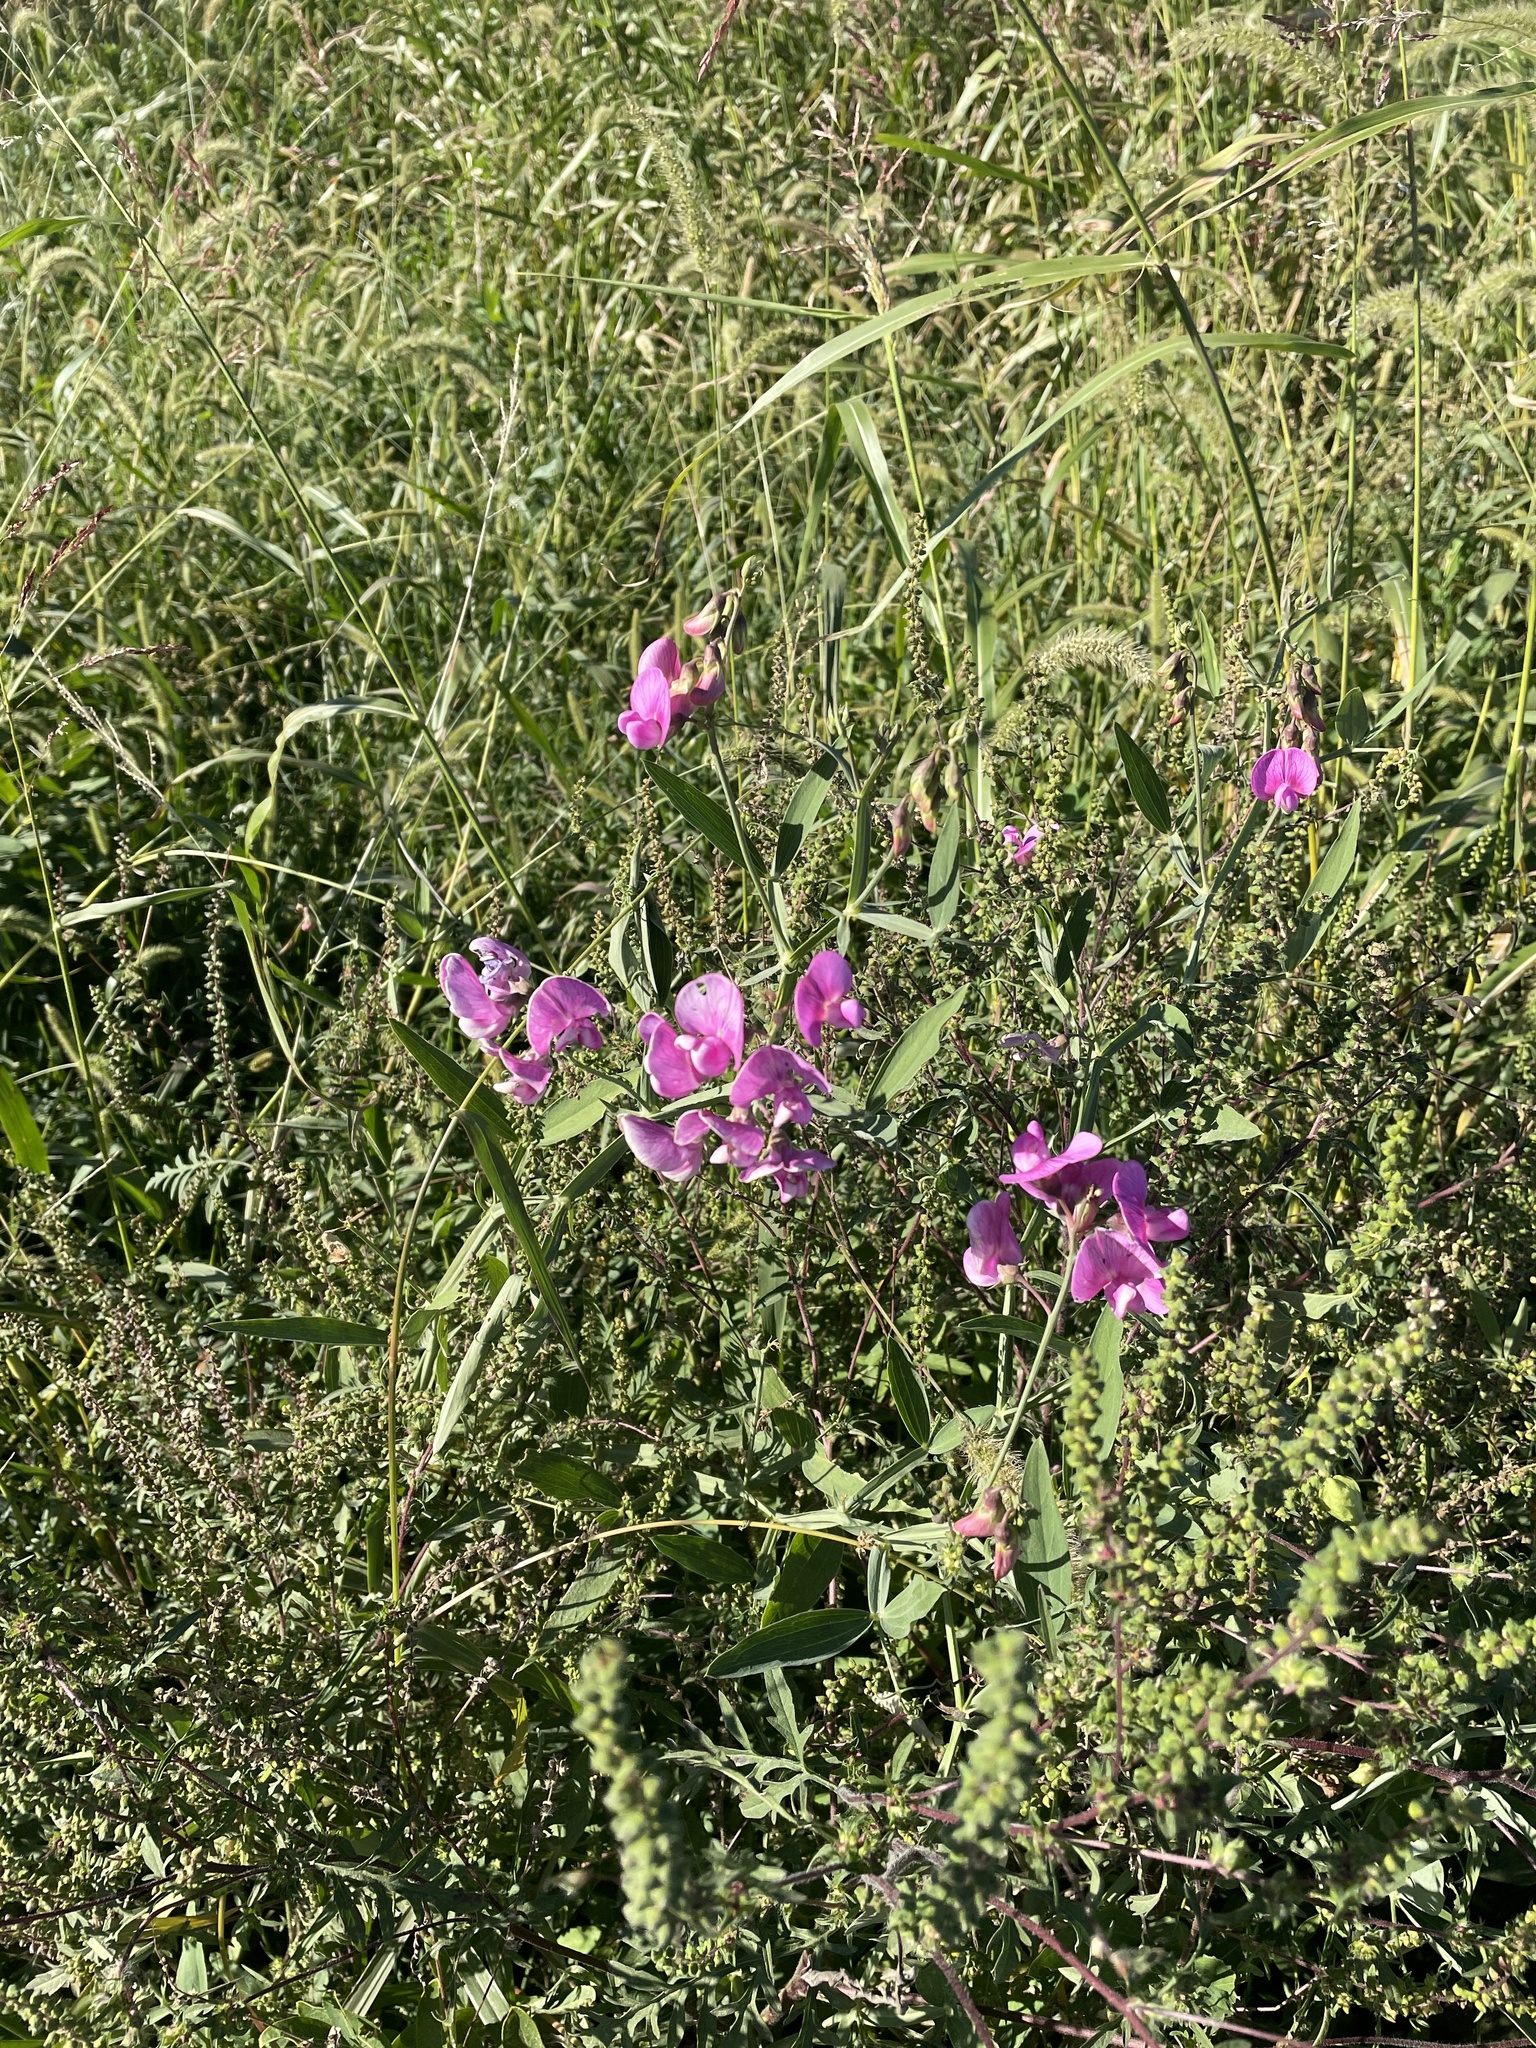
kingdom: Plantae
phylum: Tracheophyta
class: Magnoliopsida
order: Fabales
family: Fabaceae
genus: Lathyrus
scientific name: Lathyrus latifolius
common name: Perennial pea
